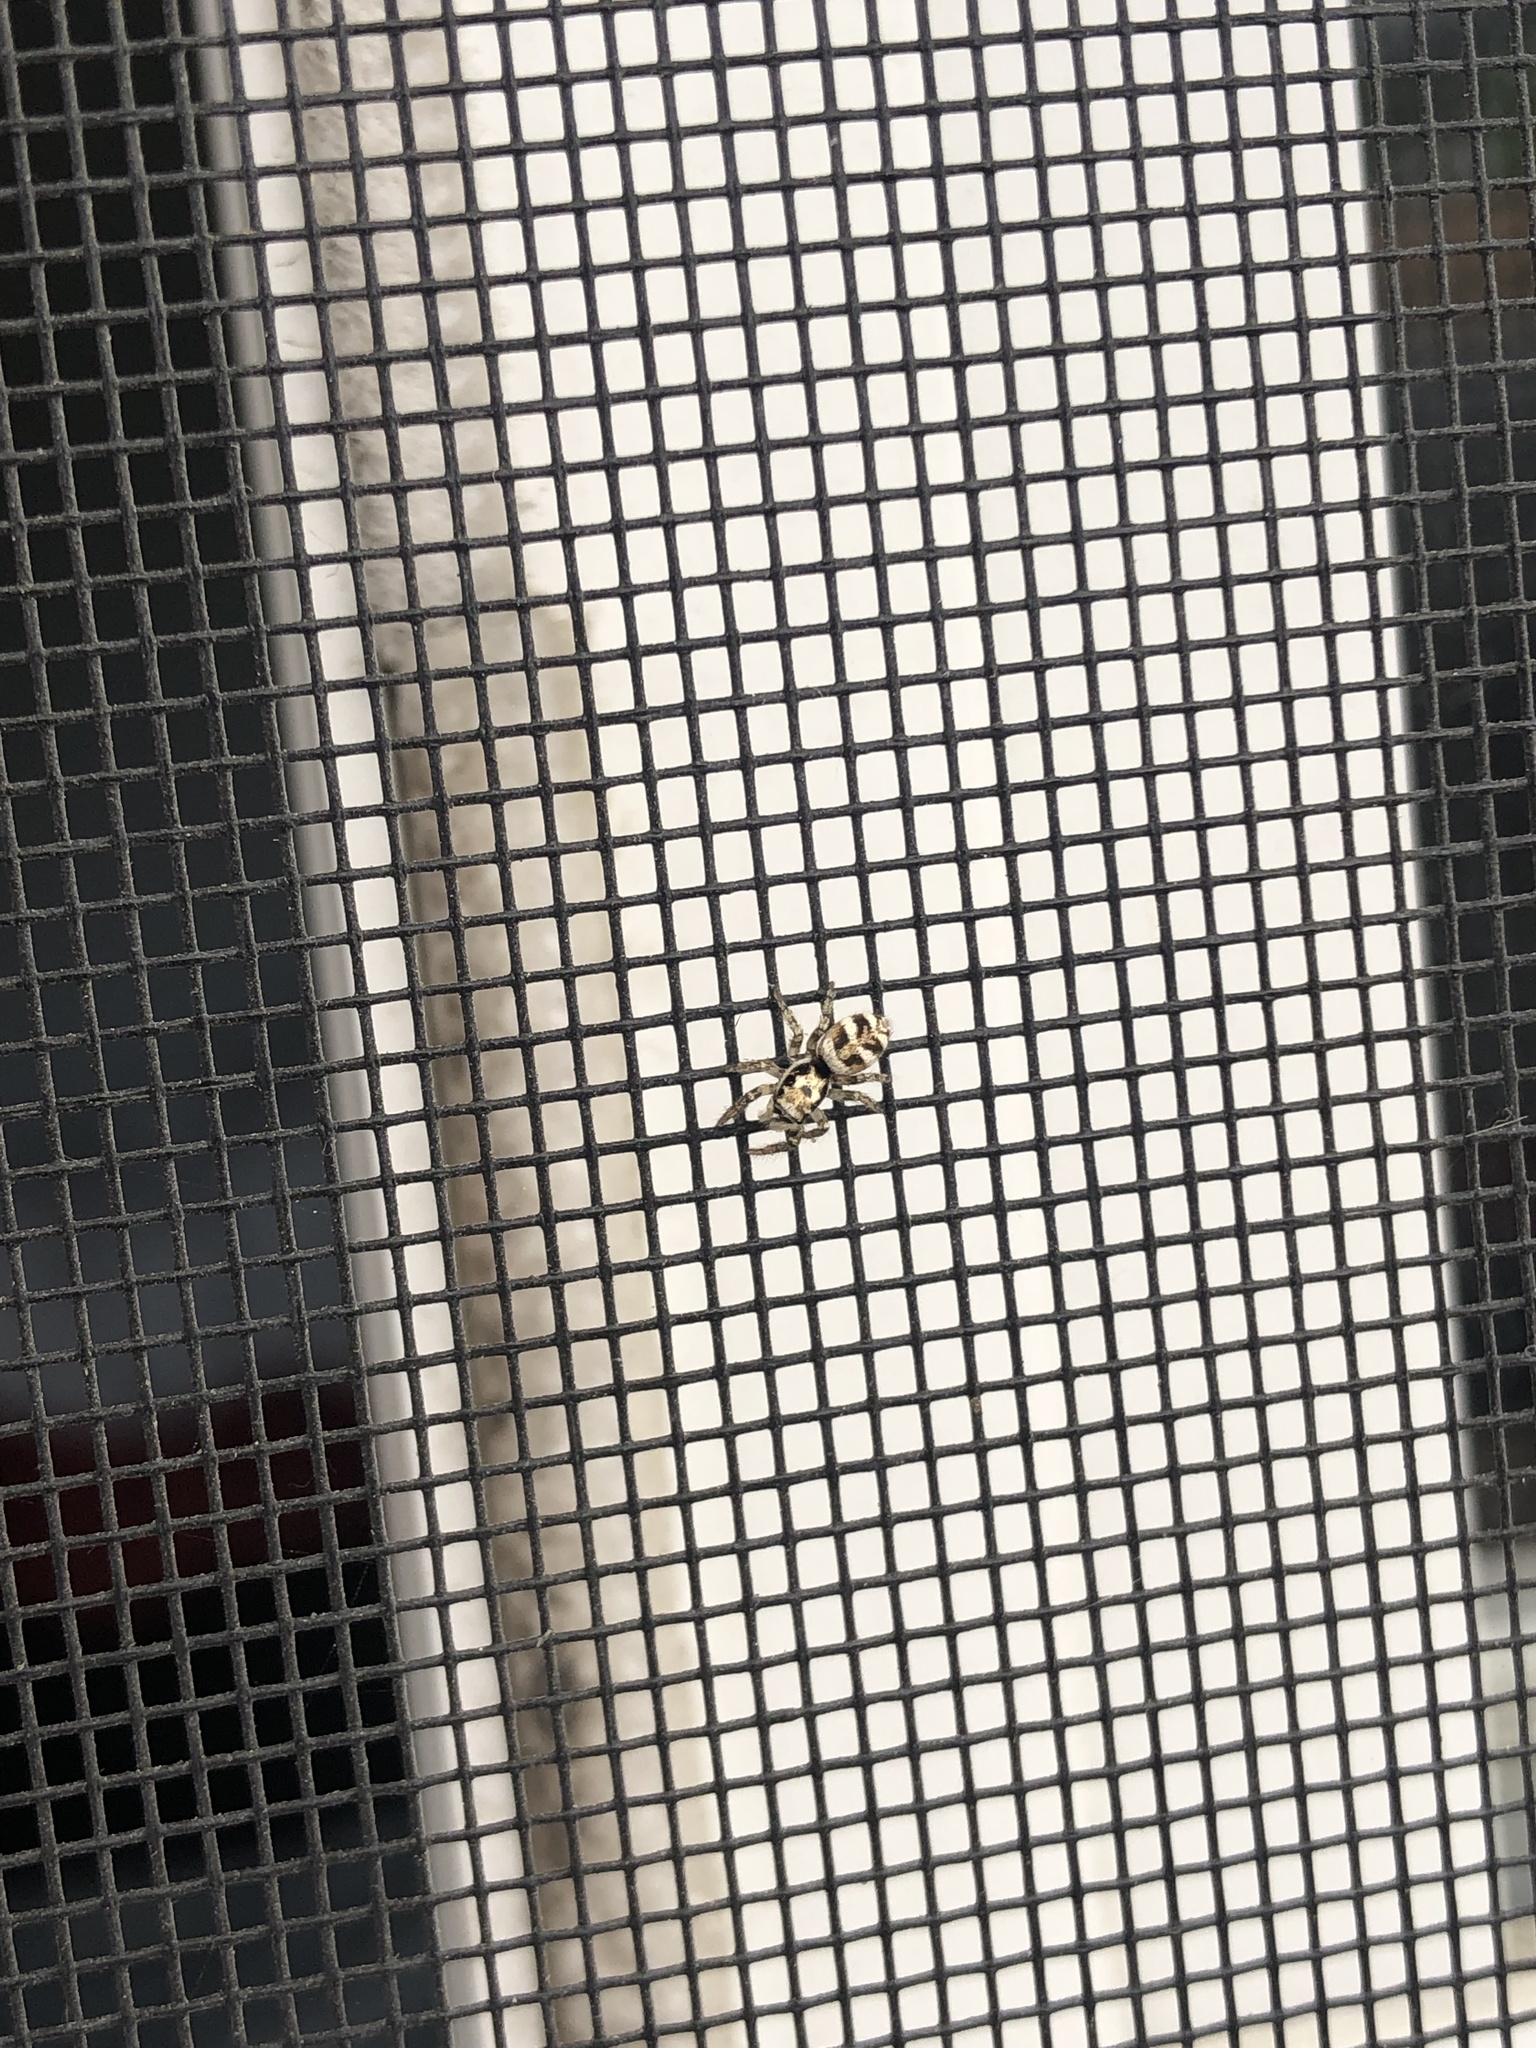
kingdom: Animalia
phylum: Arthropoda
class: Arachnida
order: Araneae
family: Salticidae
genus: Salticus
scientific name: Salticus scenicus
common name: Zebra jumper
